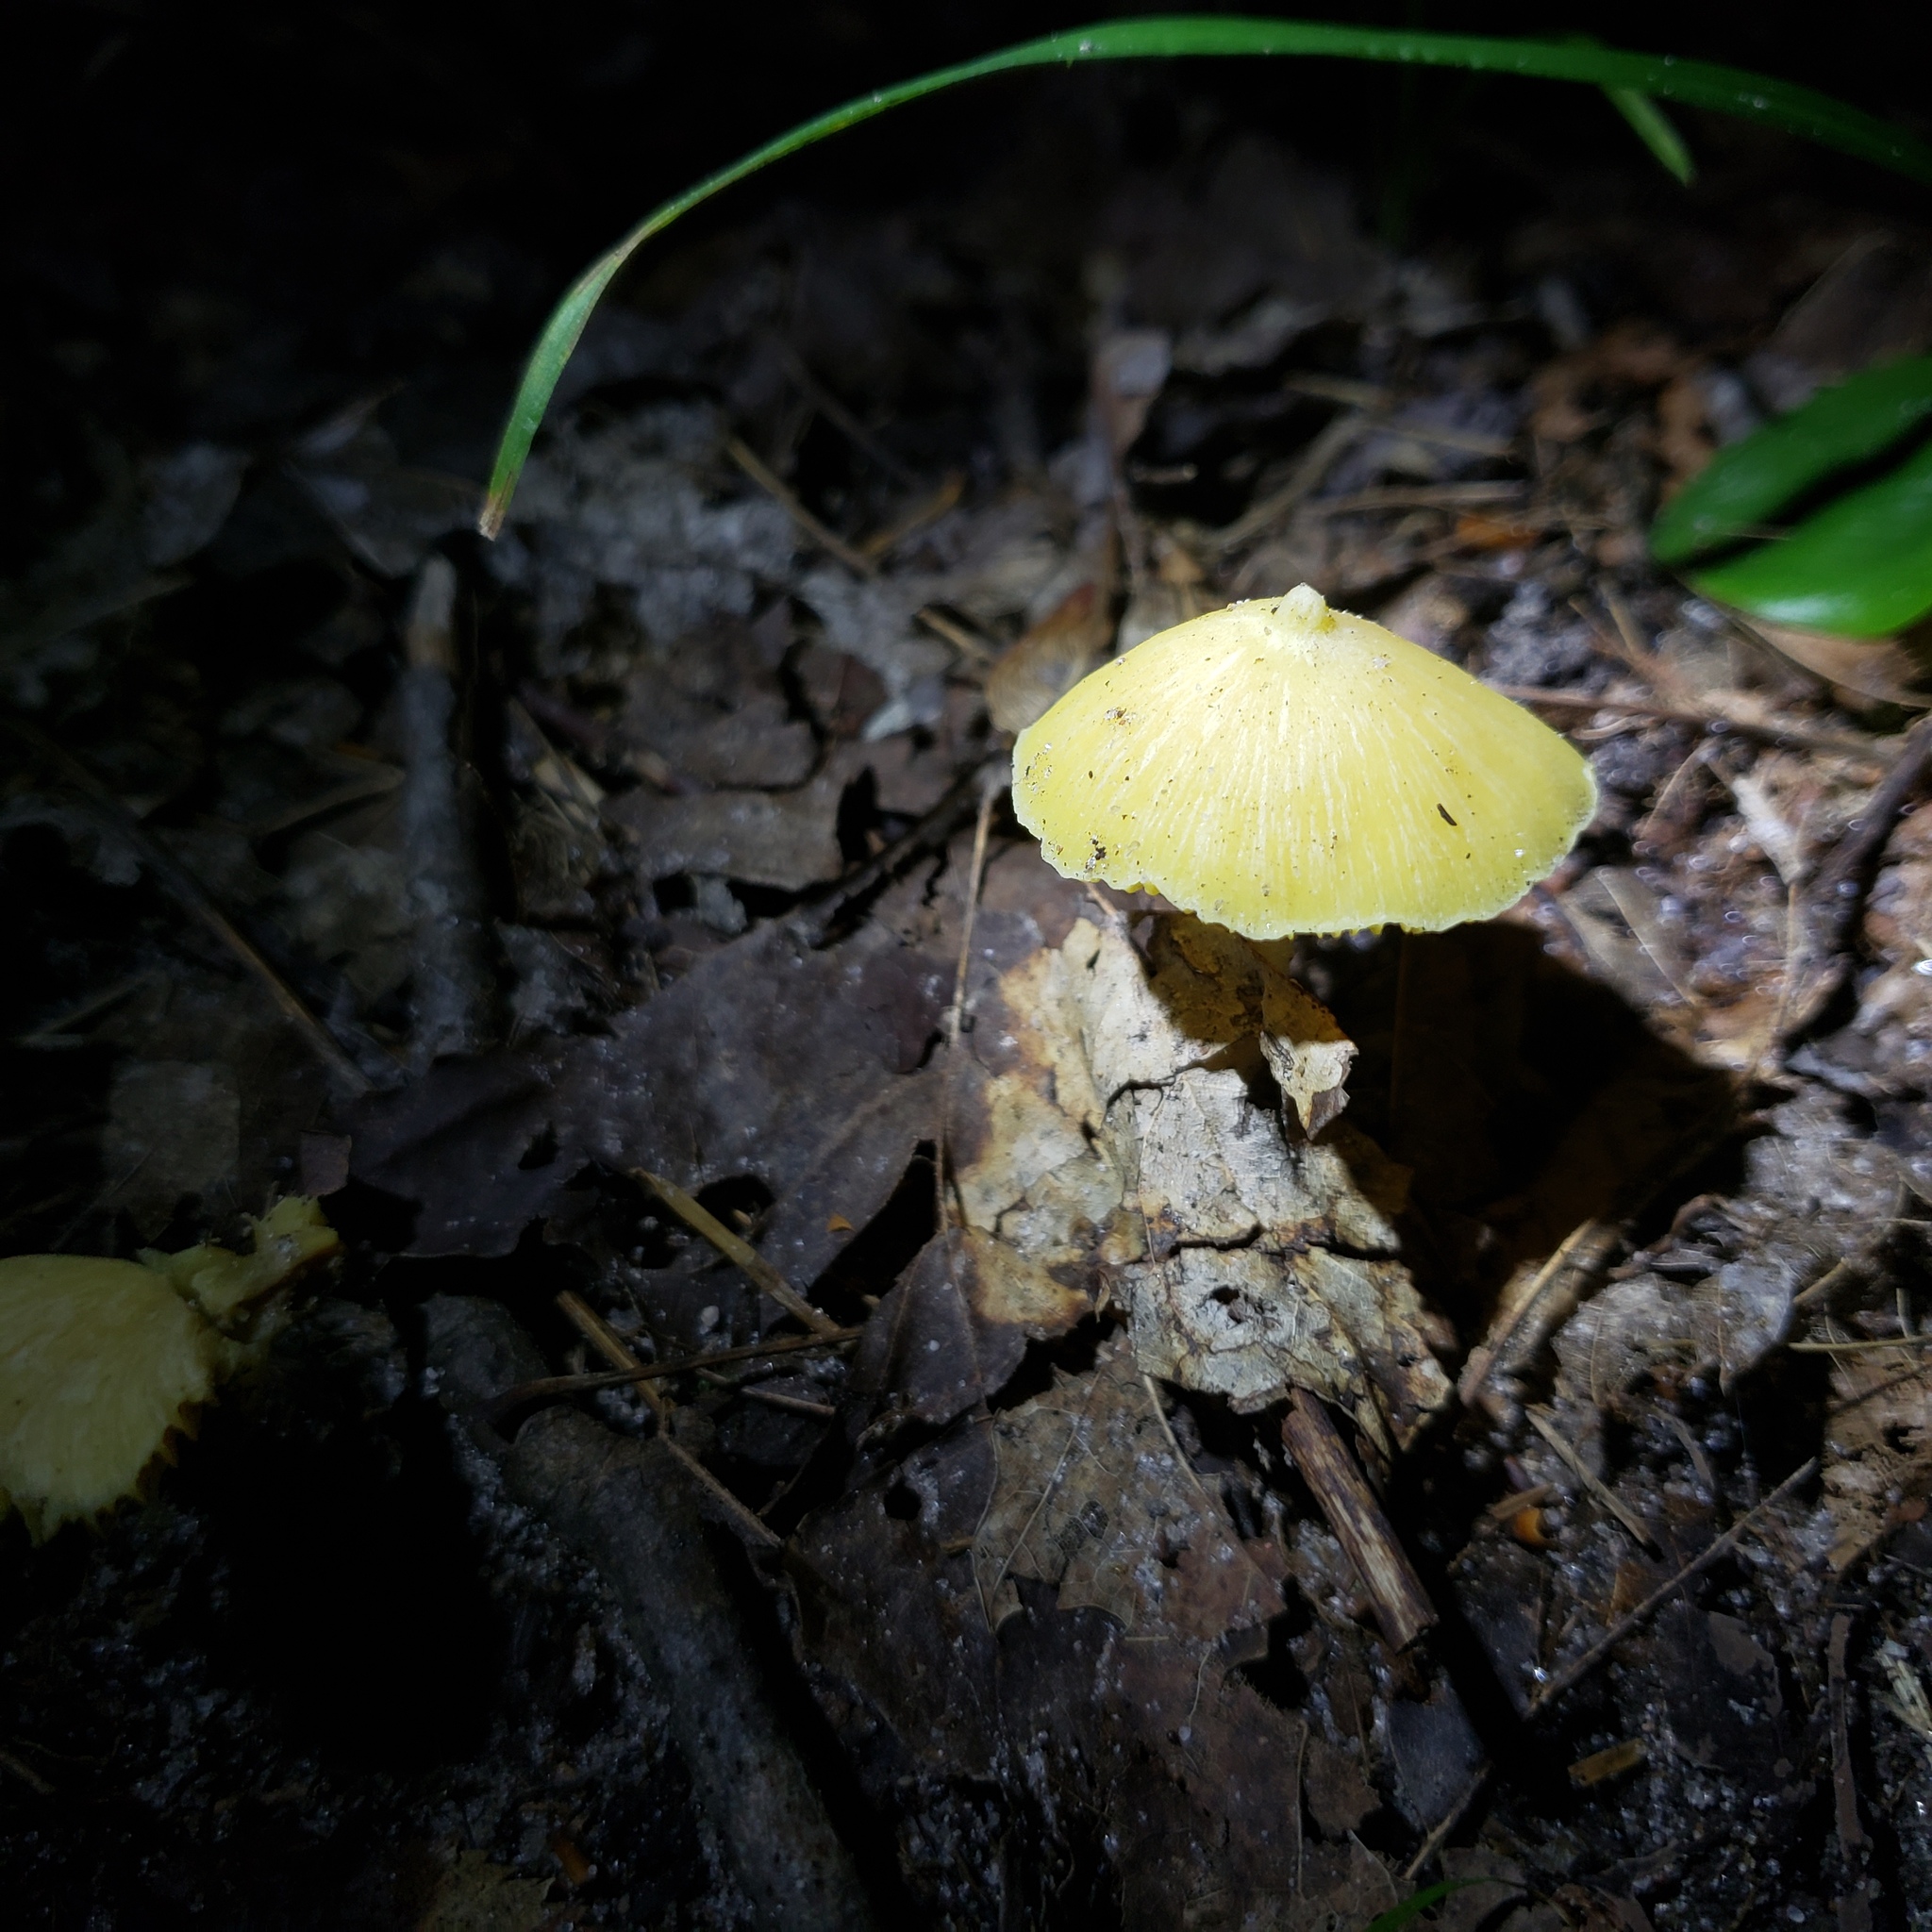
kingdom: Fungi
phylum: Basidiomycota
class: Agaricomycetes
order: Agaricales
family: Entolomataceae
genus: Entoloma
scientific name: Entoloma murrayi
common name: Yellow unicorn entoloma
